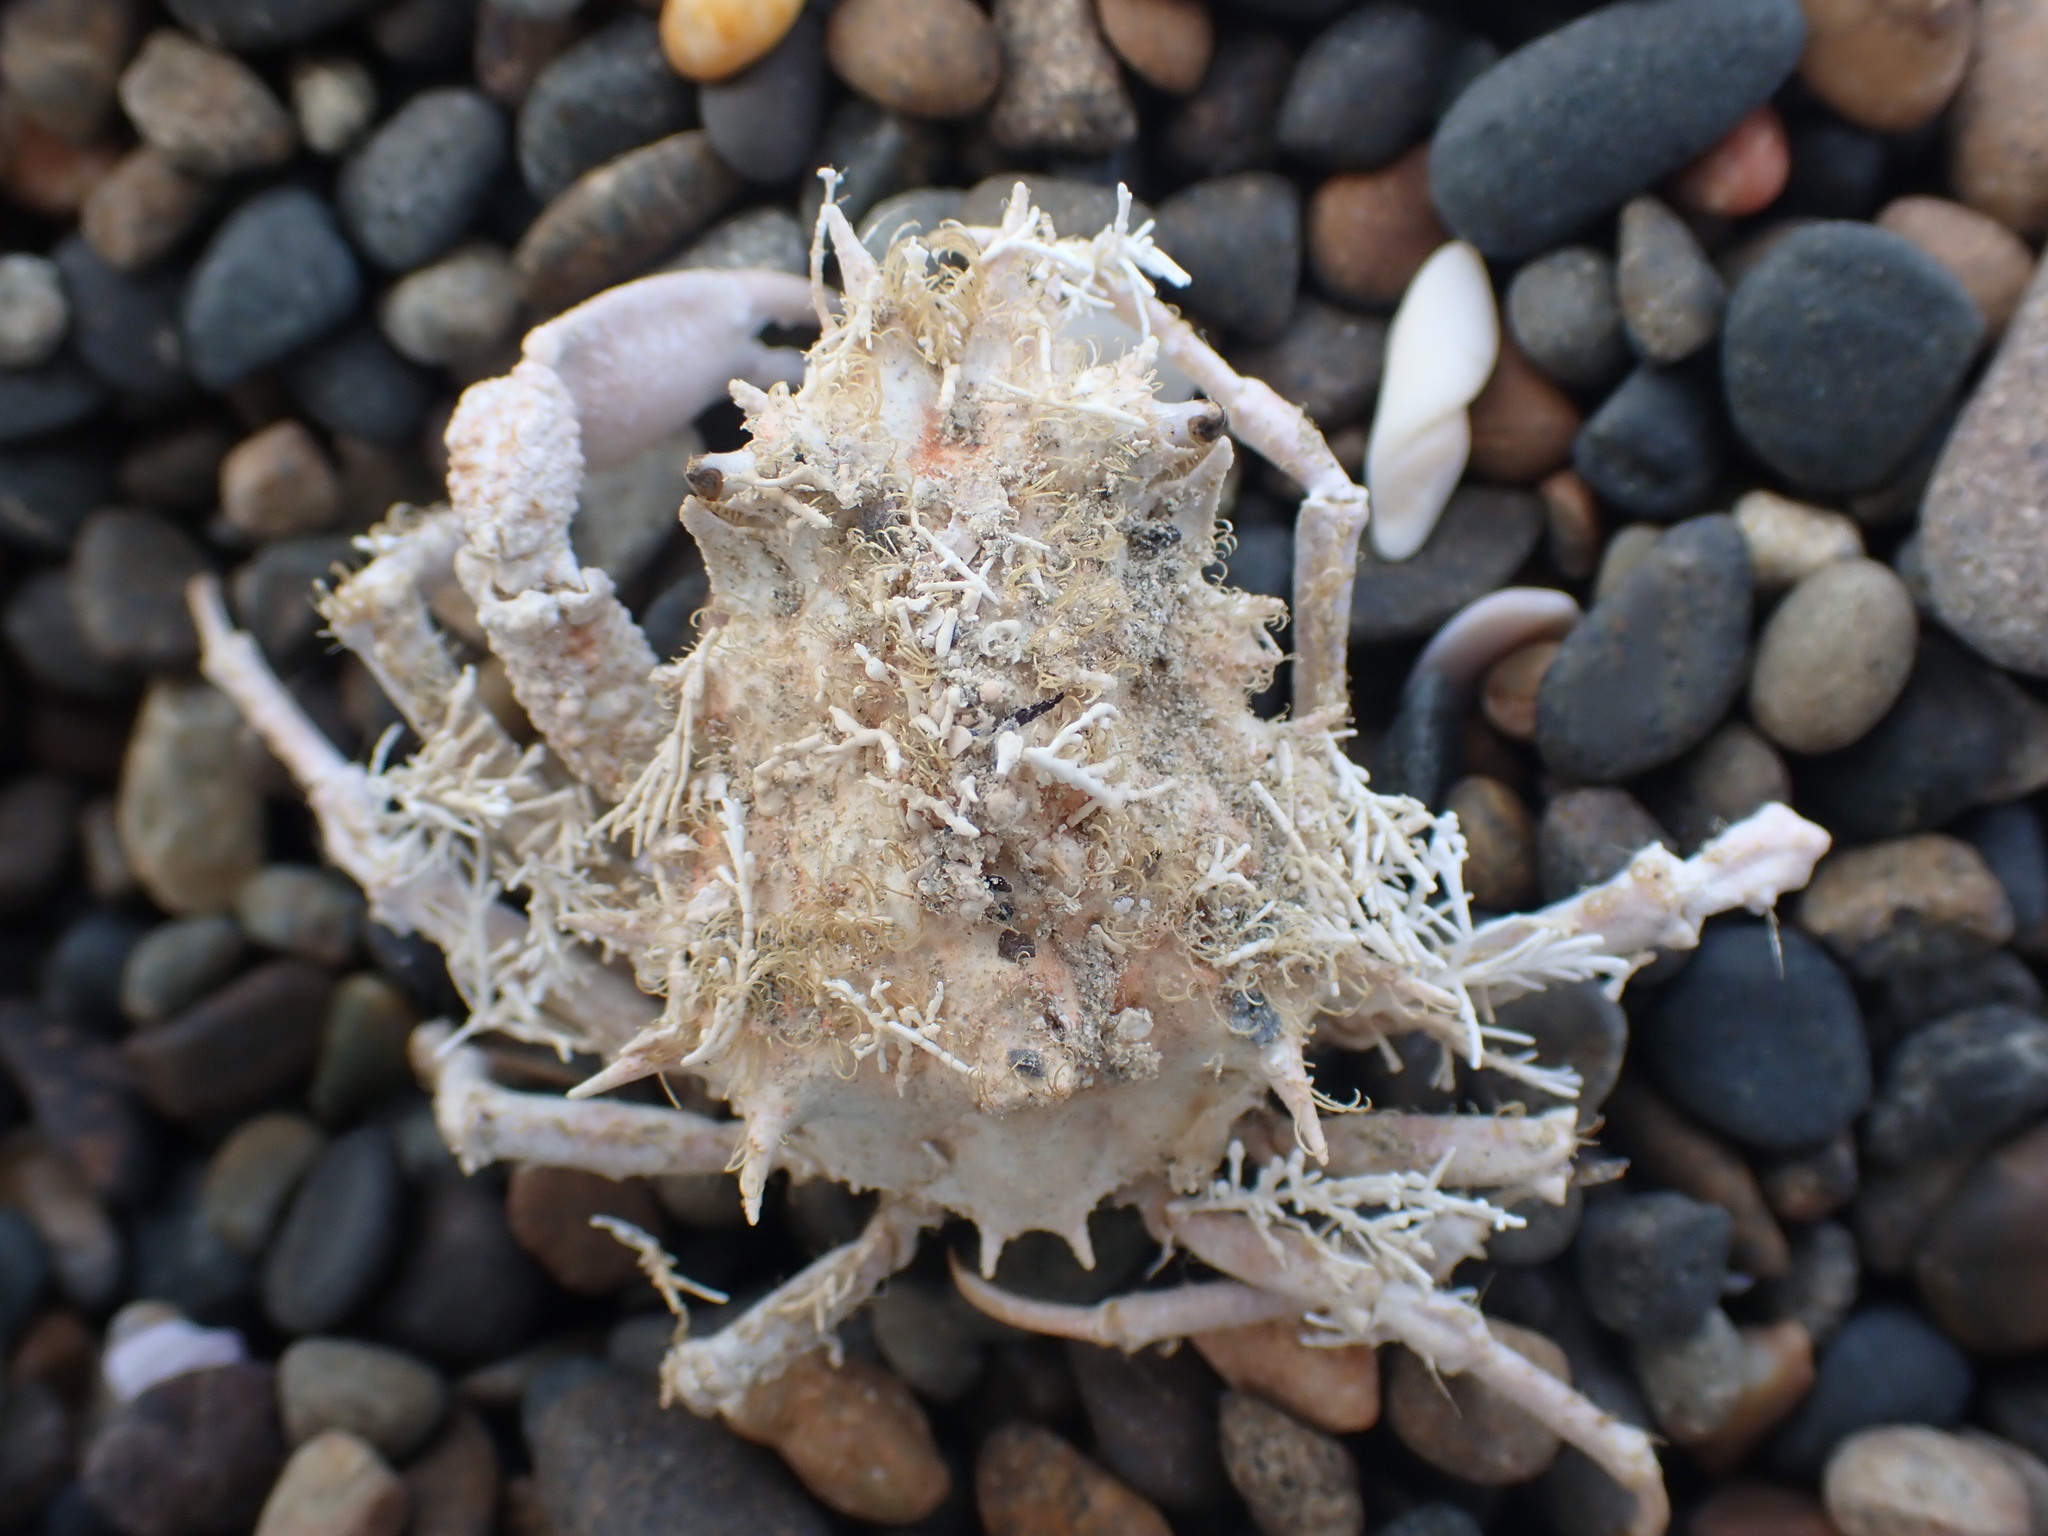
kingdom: Animalia
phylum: Arthropoda
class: Malacostraca
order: Decapoda
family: Majidae
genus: Leptomithrax
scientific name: Leptomithrax mortenseni
